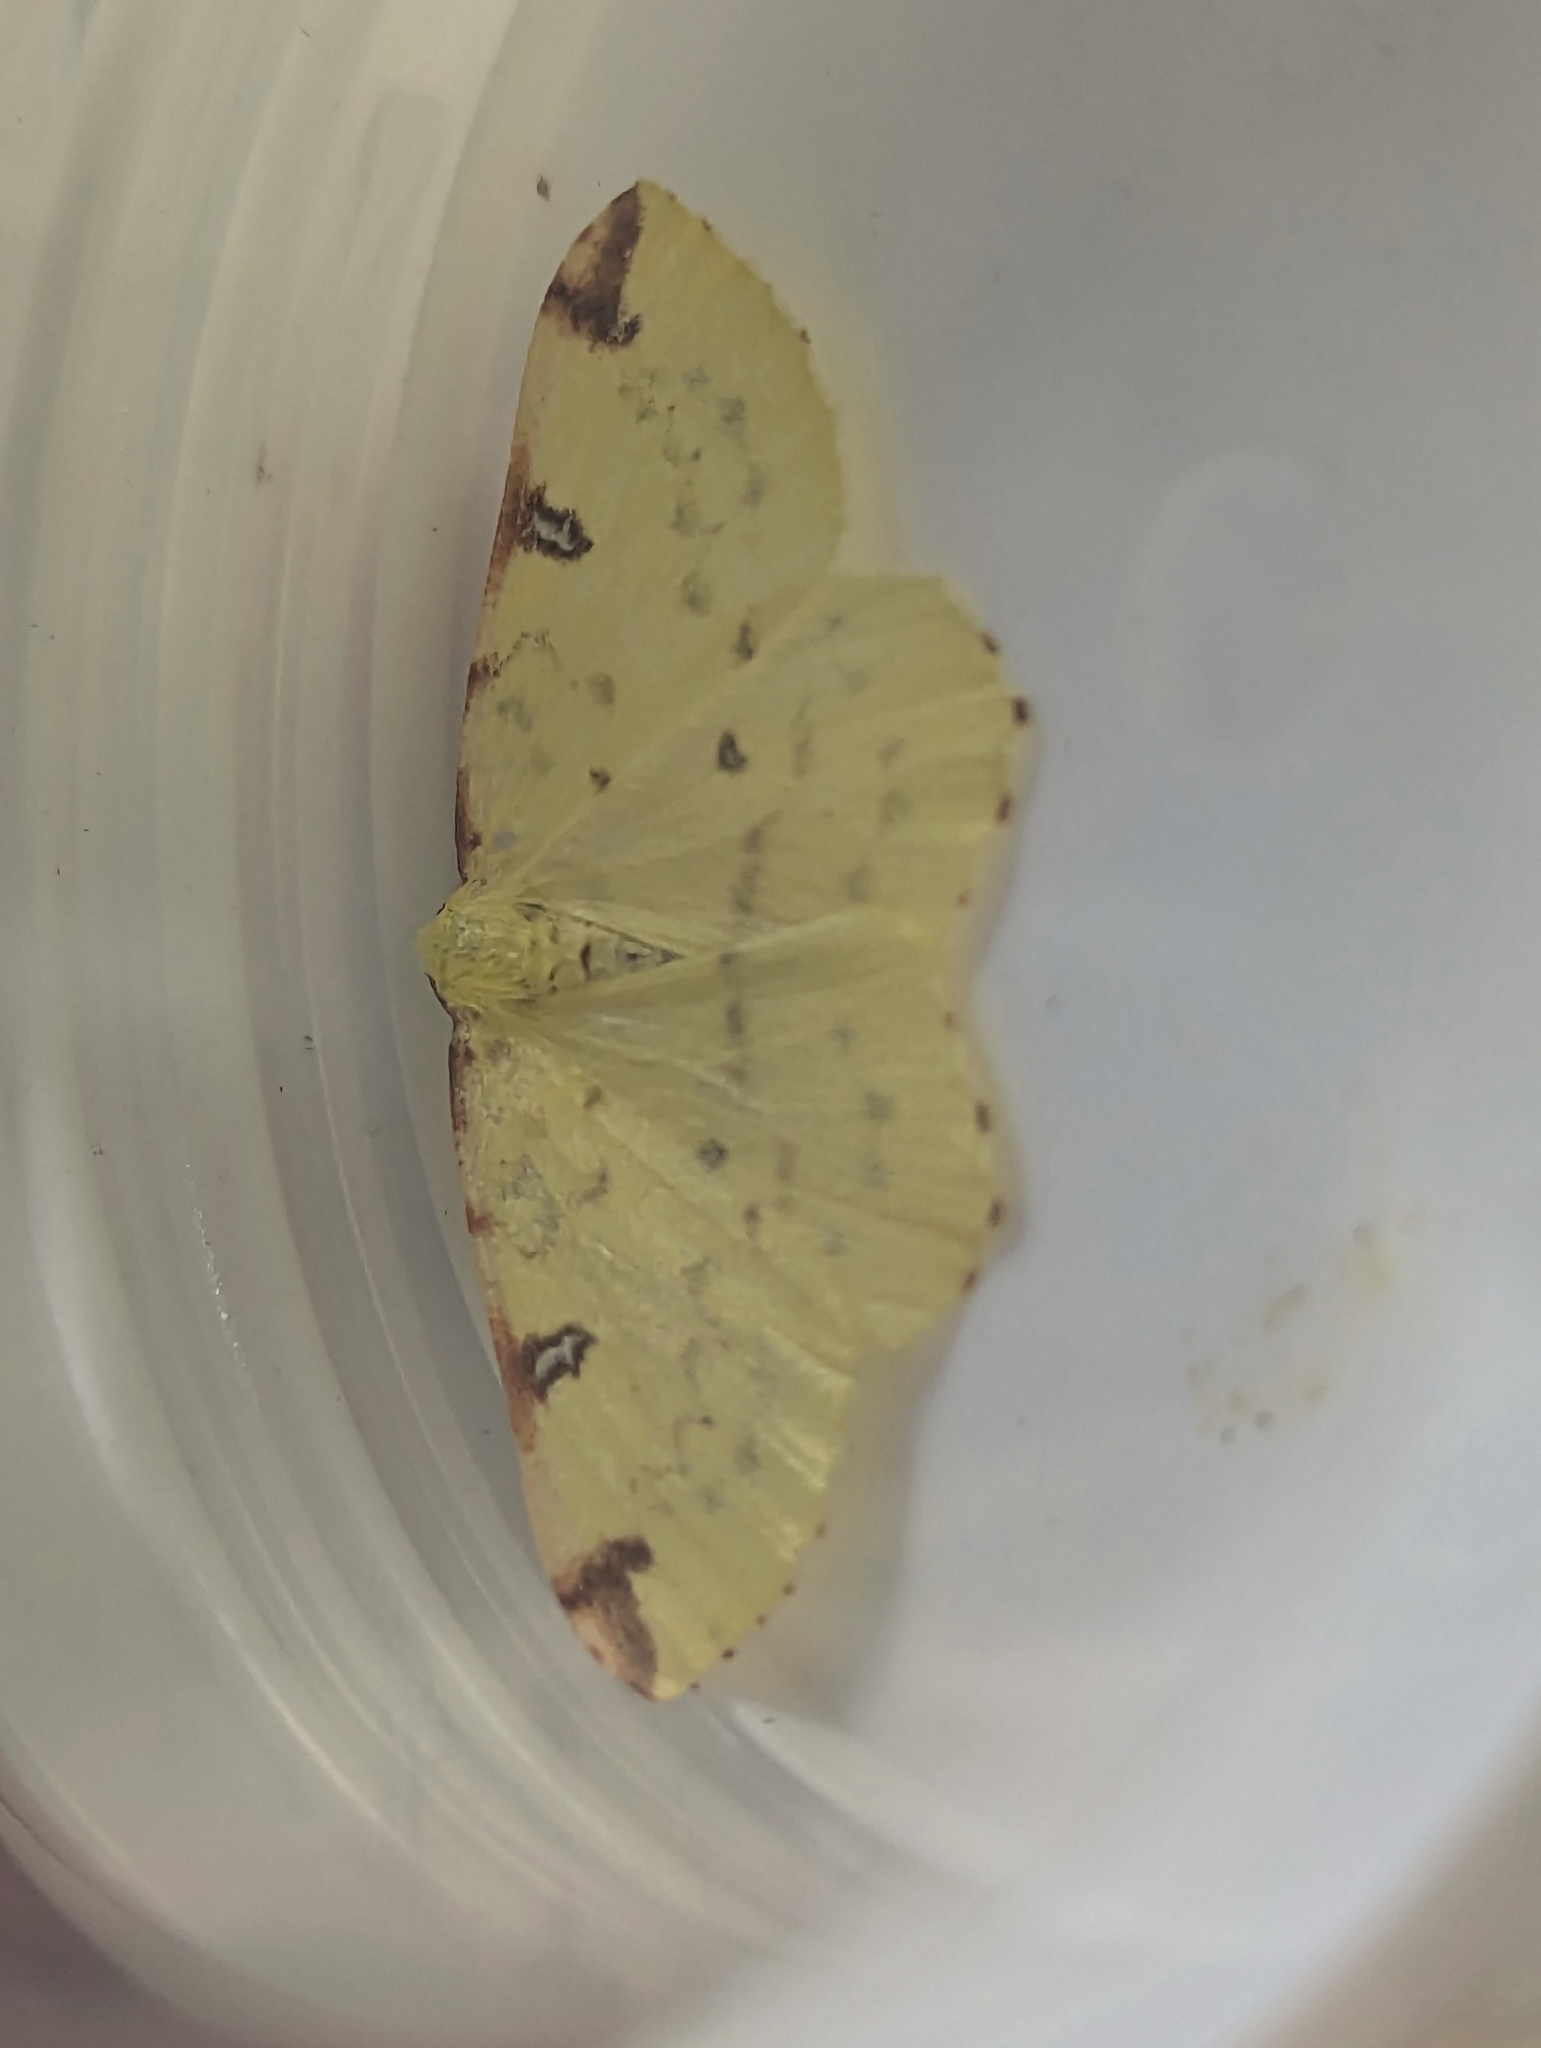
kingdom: Animalia
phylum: Arthropoda
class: Insecta
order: Lepidoptera
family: Geometridae
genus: Opisthograptis
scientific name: Opisthograptis luteolata
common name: Brimstone moth
